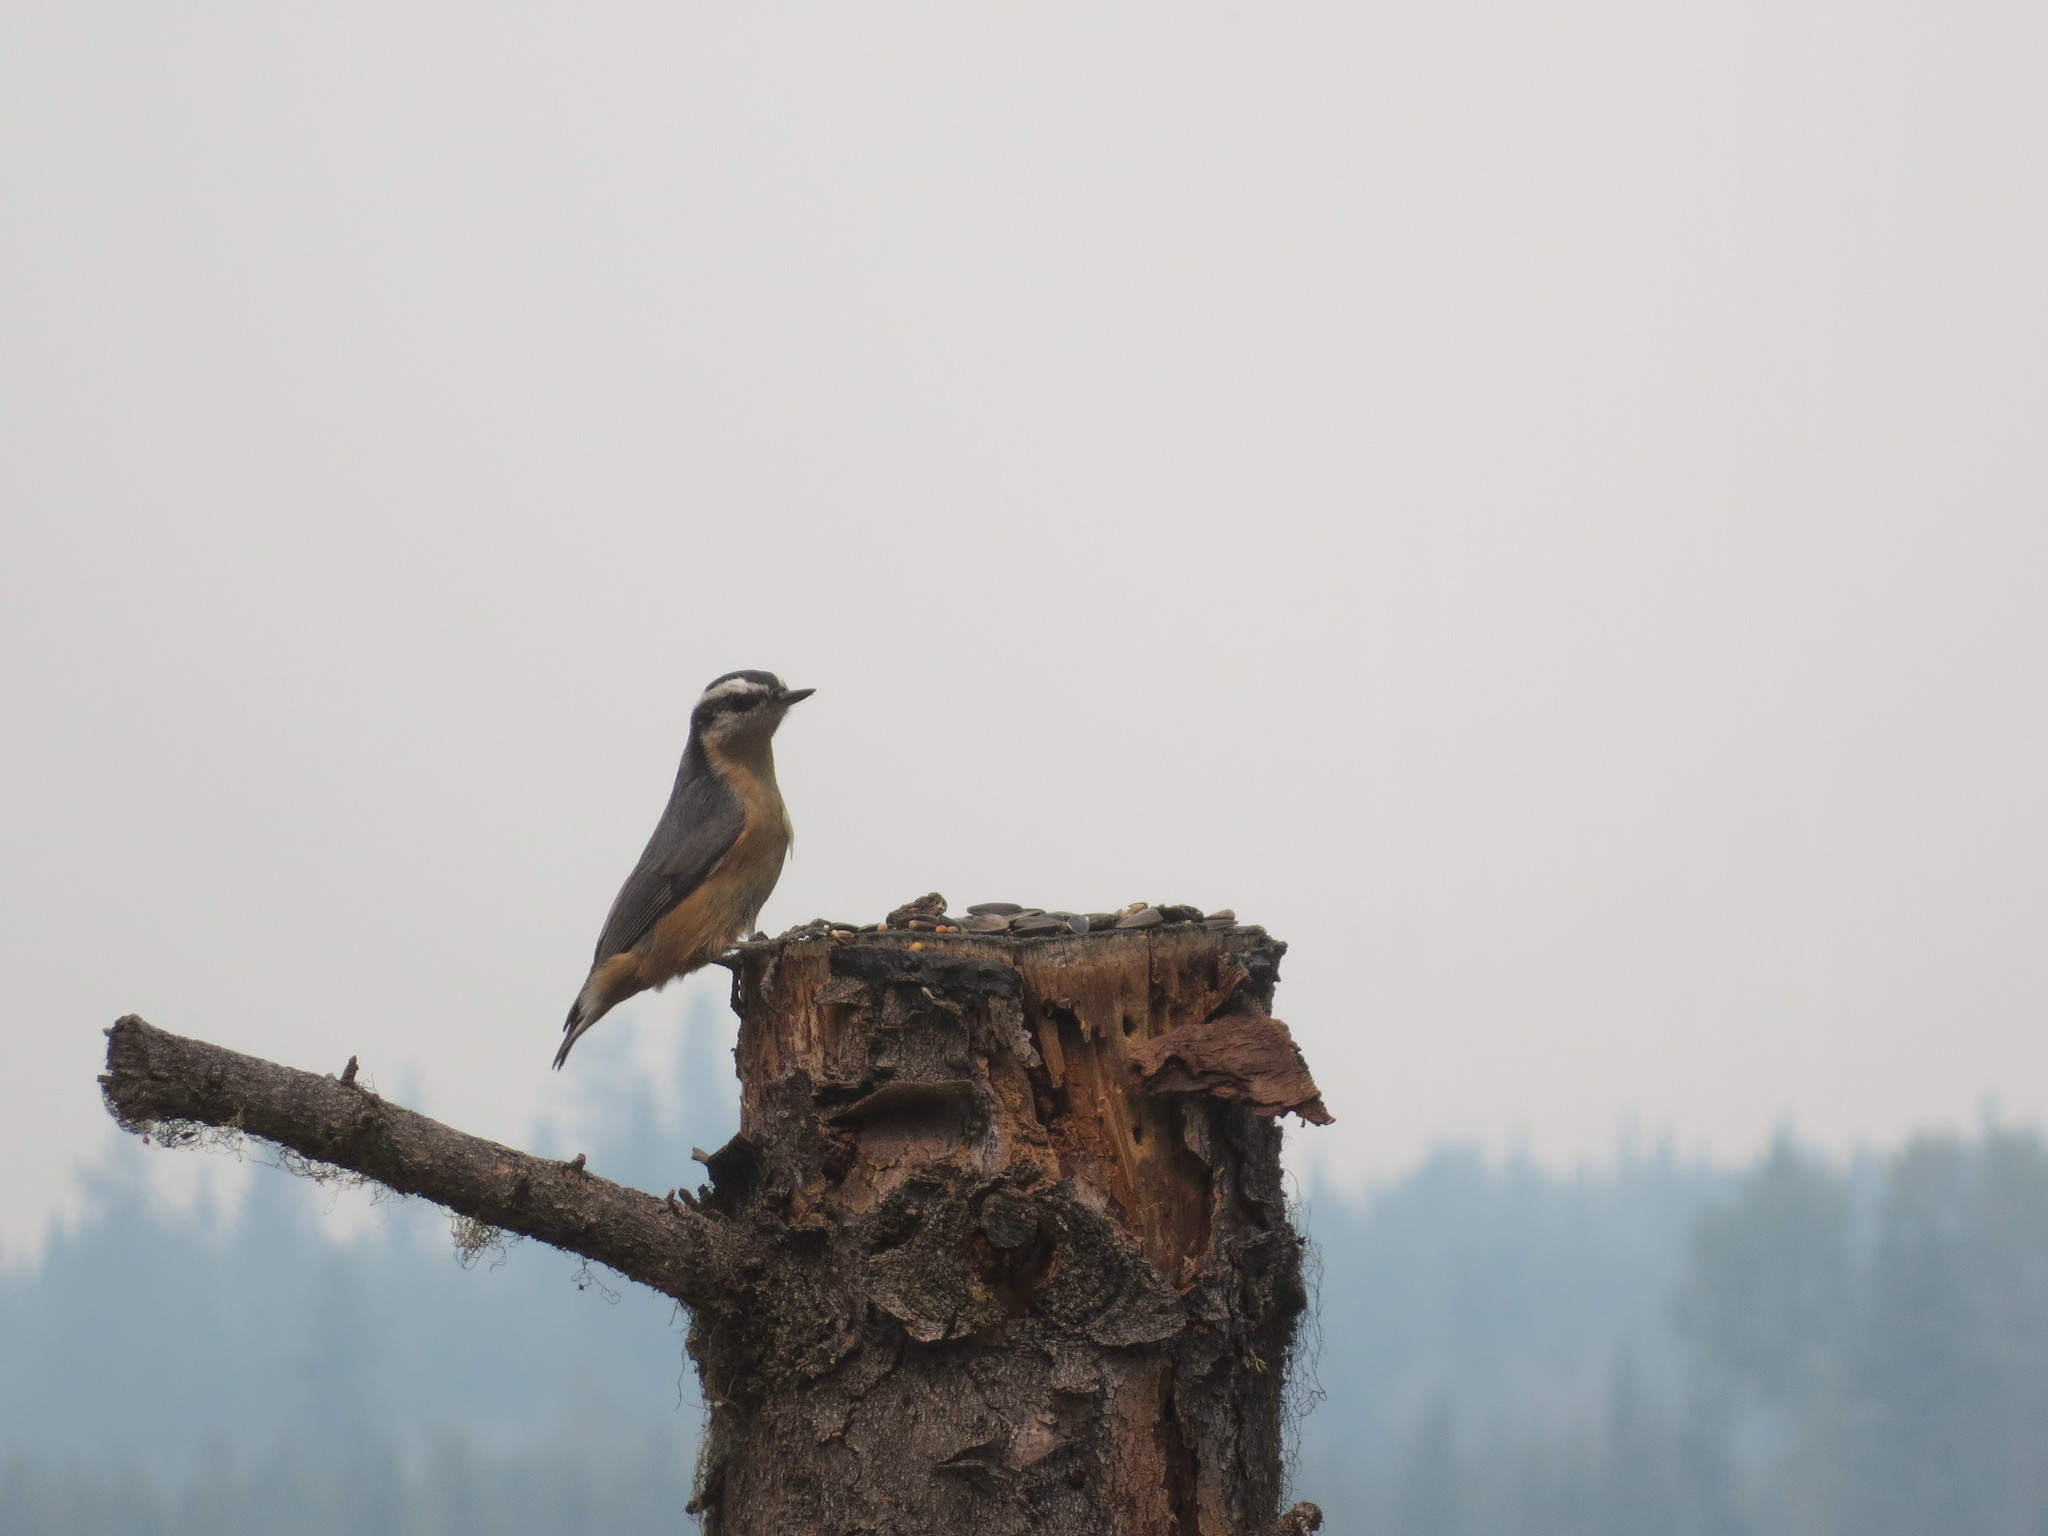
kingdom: Animalia
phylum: Chordata
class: Aves
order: Passeriformes
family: Sittidae
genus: Sitta
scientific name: Sitta canadensis
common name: Red-breasted nuthatch
